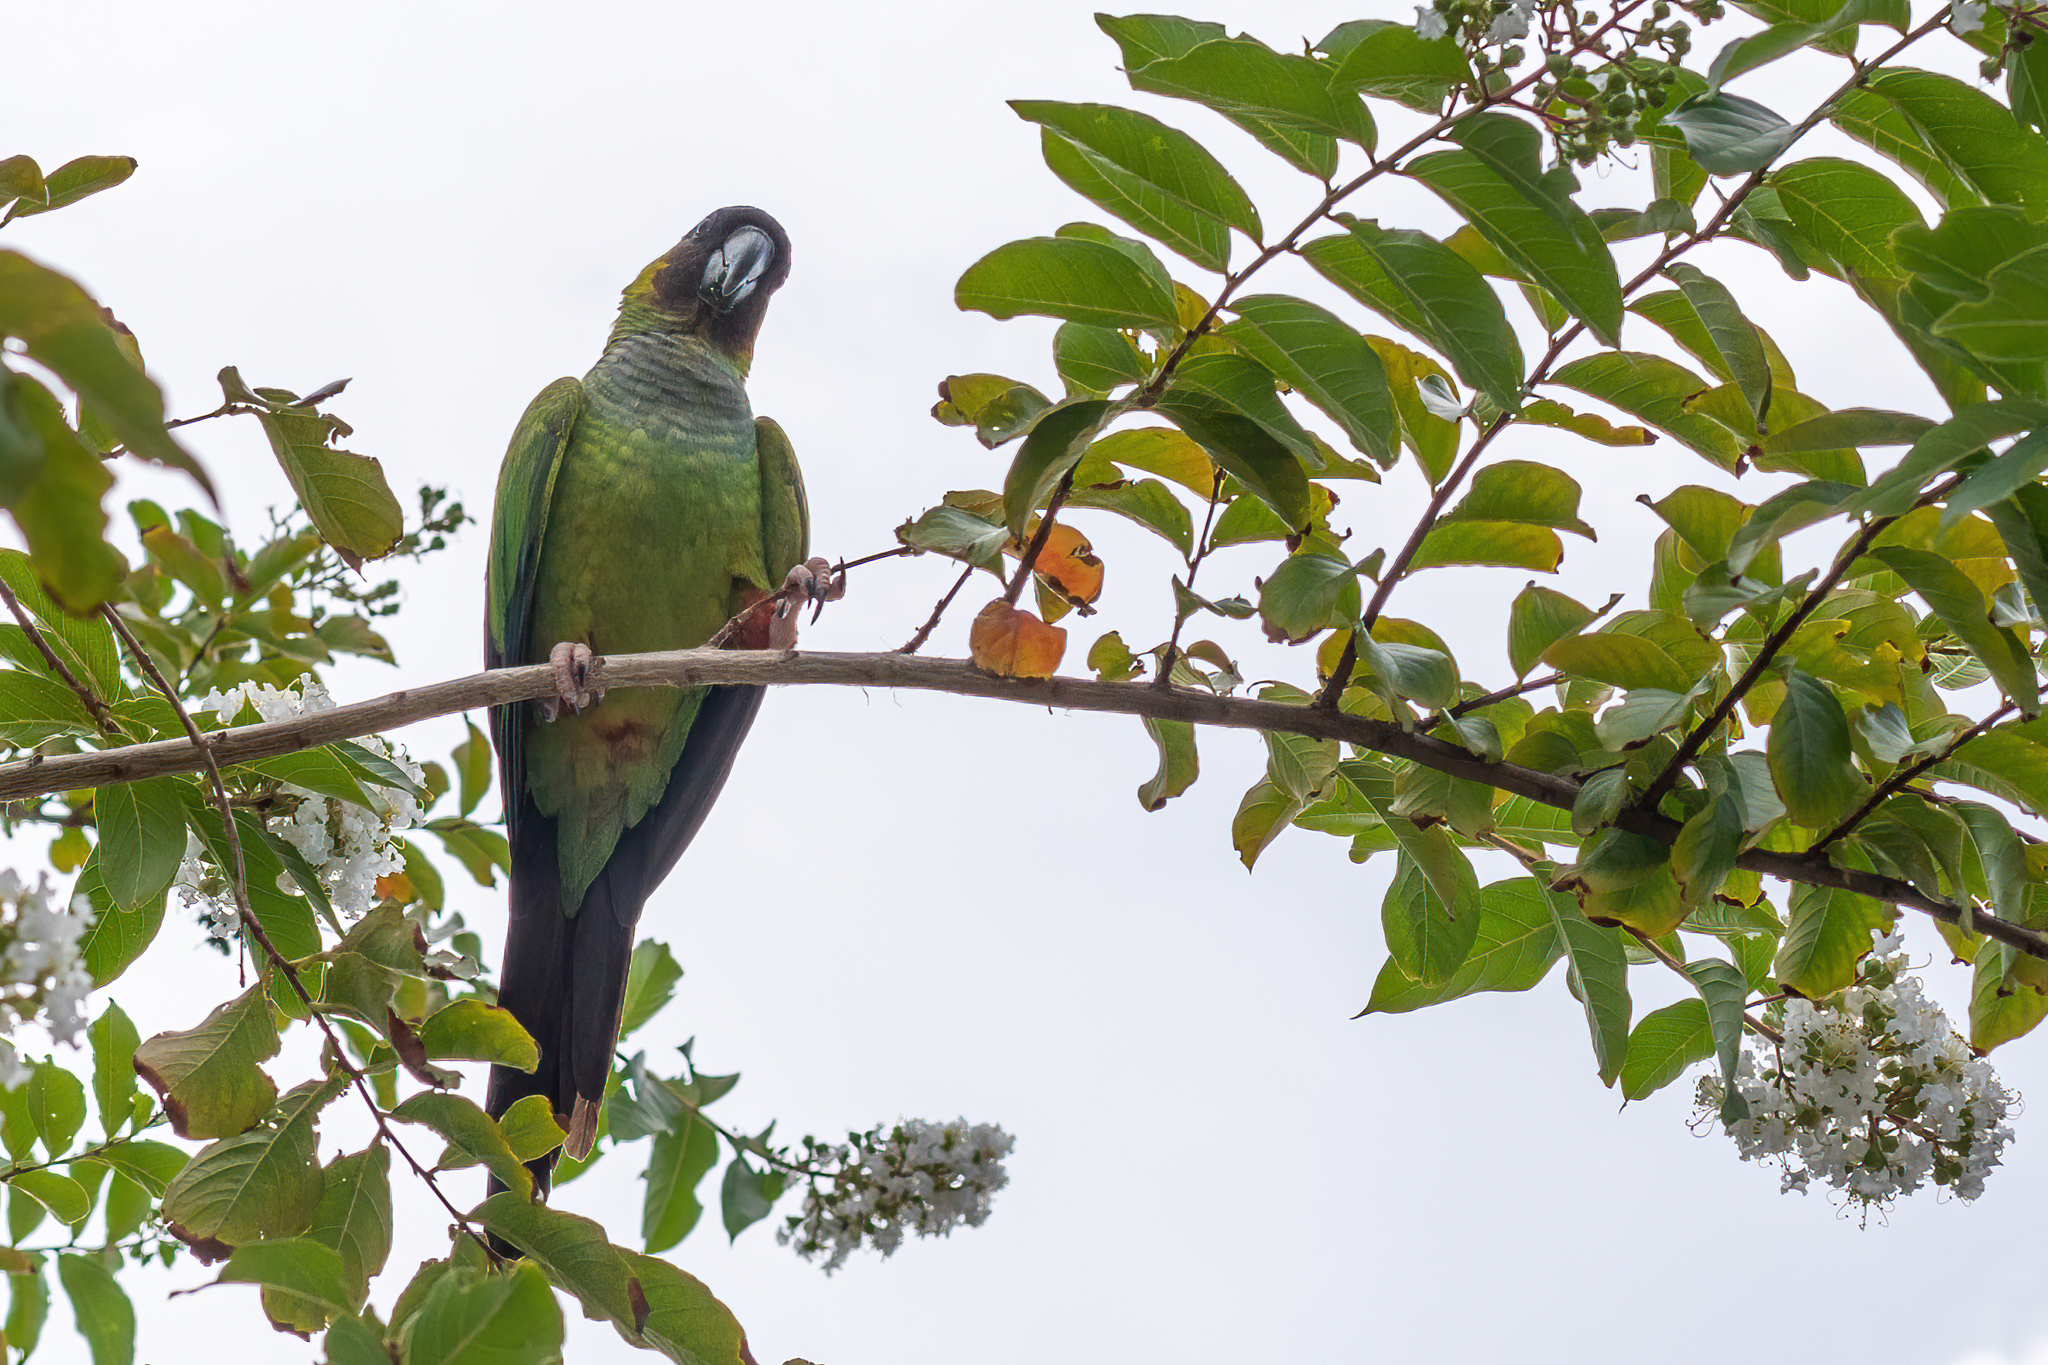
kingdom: Animalia
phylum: Chordata
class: Aves
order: Psittaciformes
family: Psittacidae
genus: Nandayus
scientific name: Nandayus nenday
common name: Nanday parakeet
